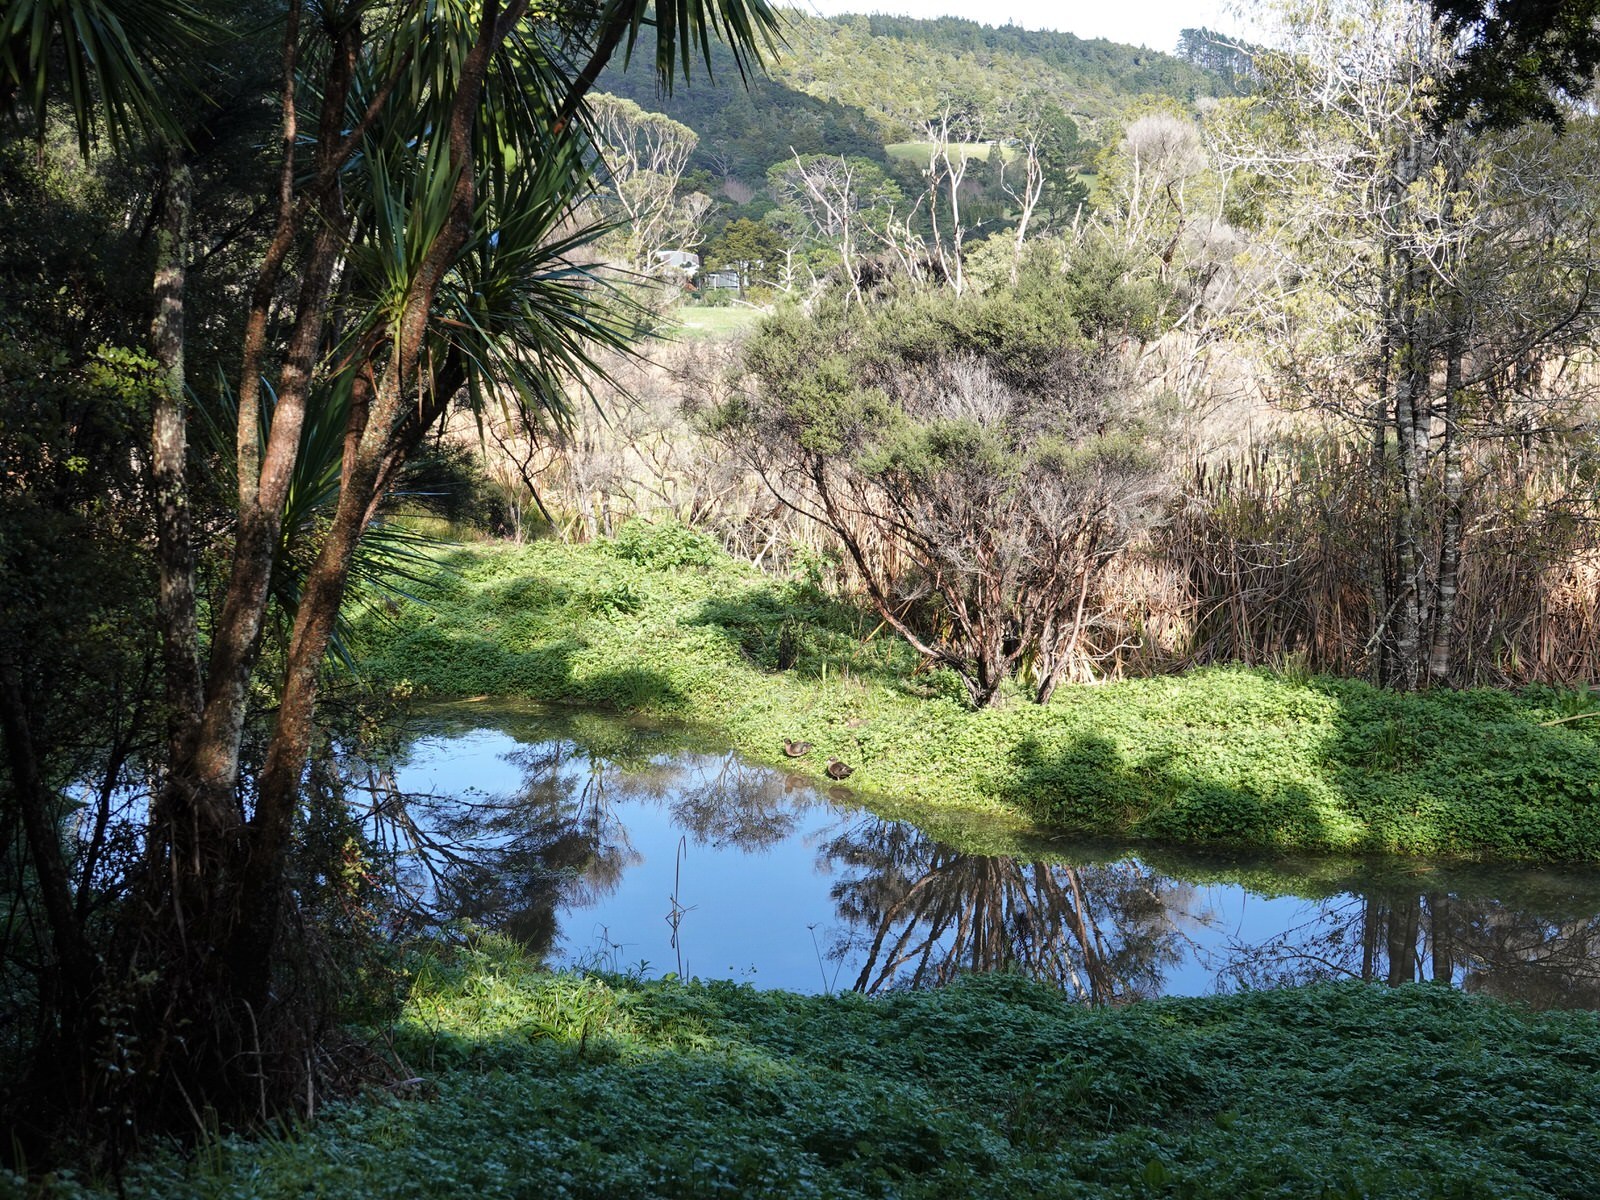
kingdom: Animalia
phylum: Chordata
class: Aves
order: Anseriformes
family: Anatidae
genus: Anas
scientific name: Anas chlorotis
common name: Brown teal
